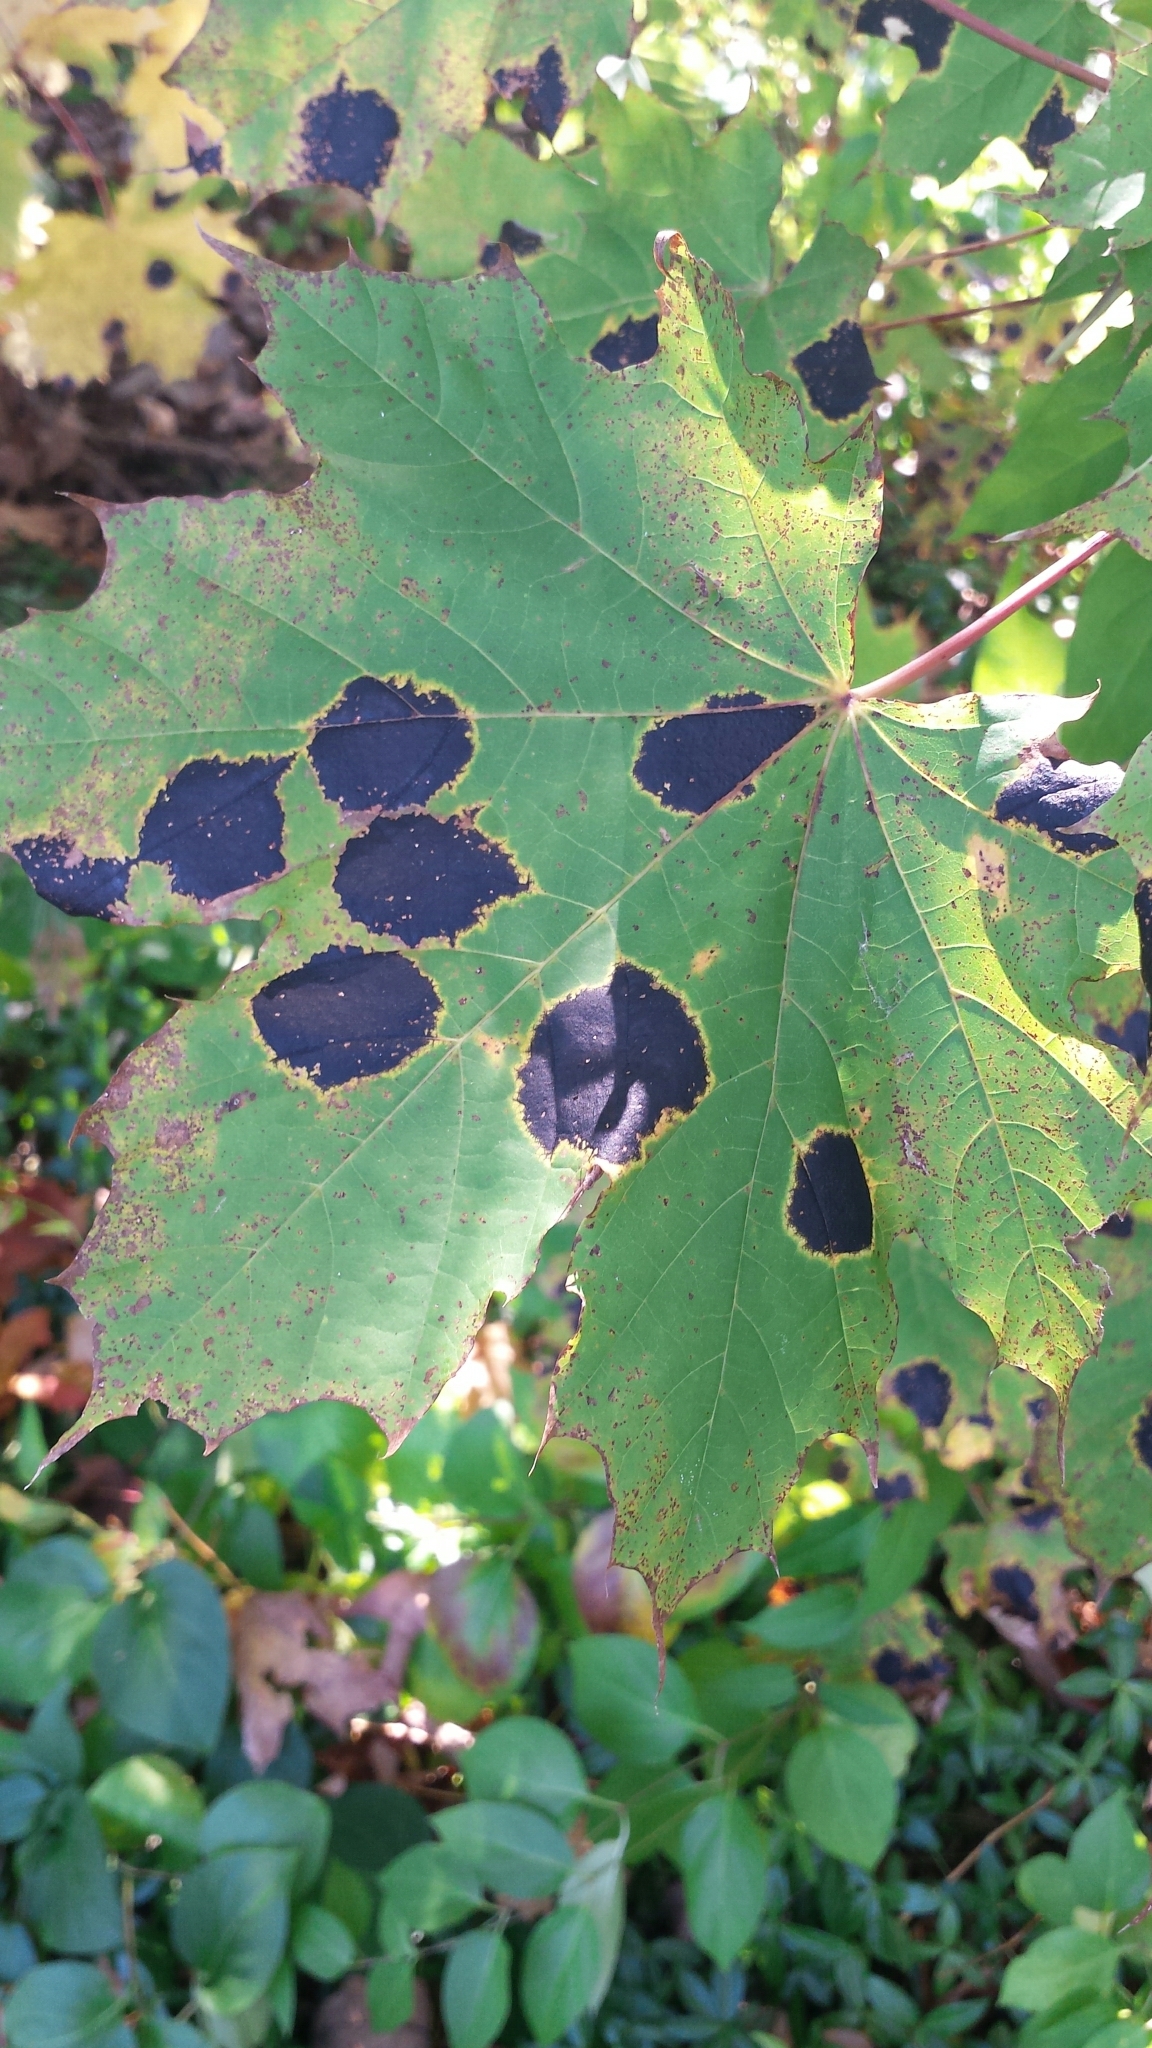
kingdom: Fungi
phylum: Ascomycota
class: Leotiomycetes
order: Rhytismatales
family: Rhytismataceae
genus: Rhytisma
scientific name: Rhytisma acerinum
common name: European tar spot
